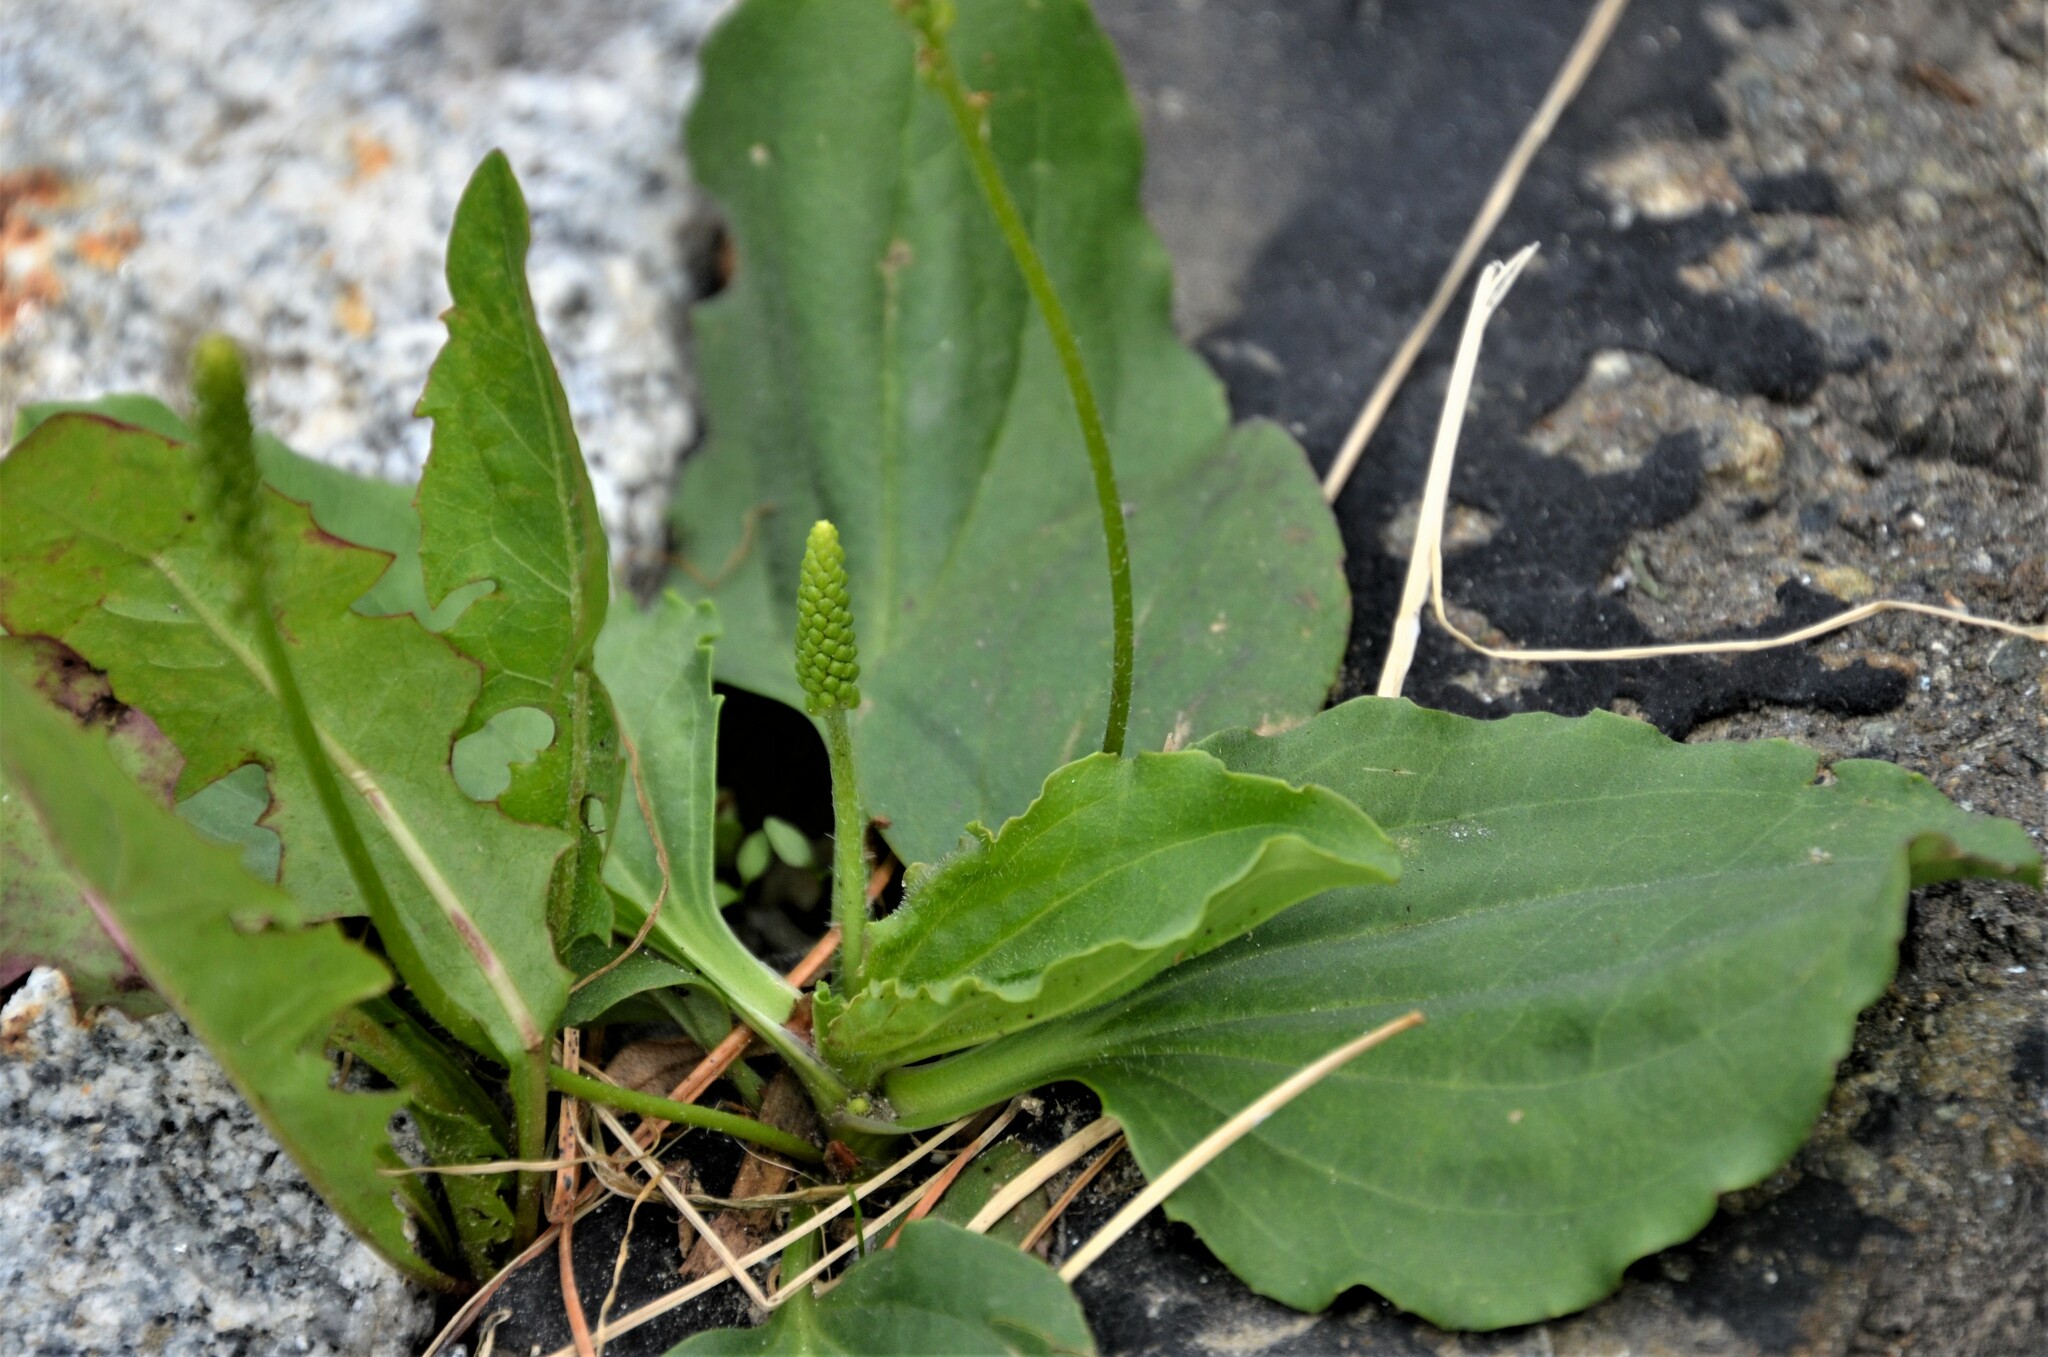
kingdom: Plantae
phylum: Tracheophyta
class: Magnoliopsida
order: Lamiales
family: Plantaginaceae
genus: Plantago
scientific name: Plantago major
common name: Common plantain
